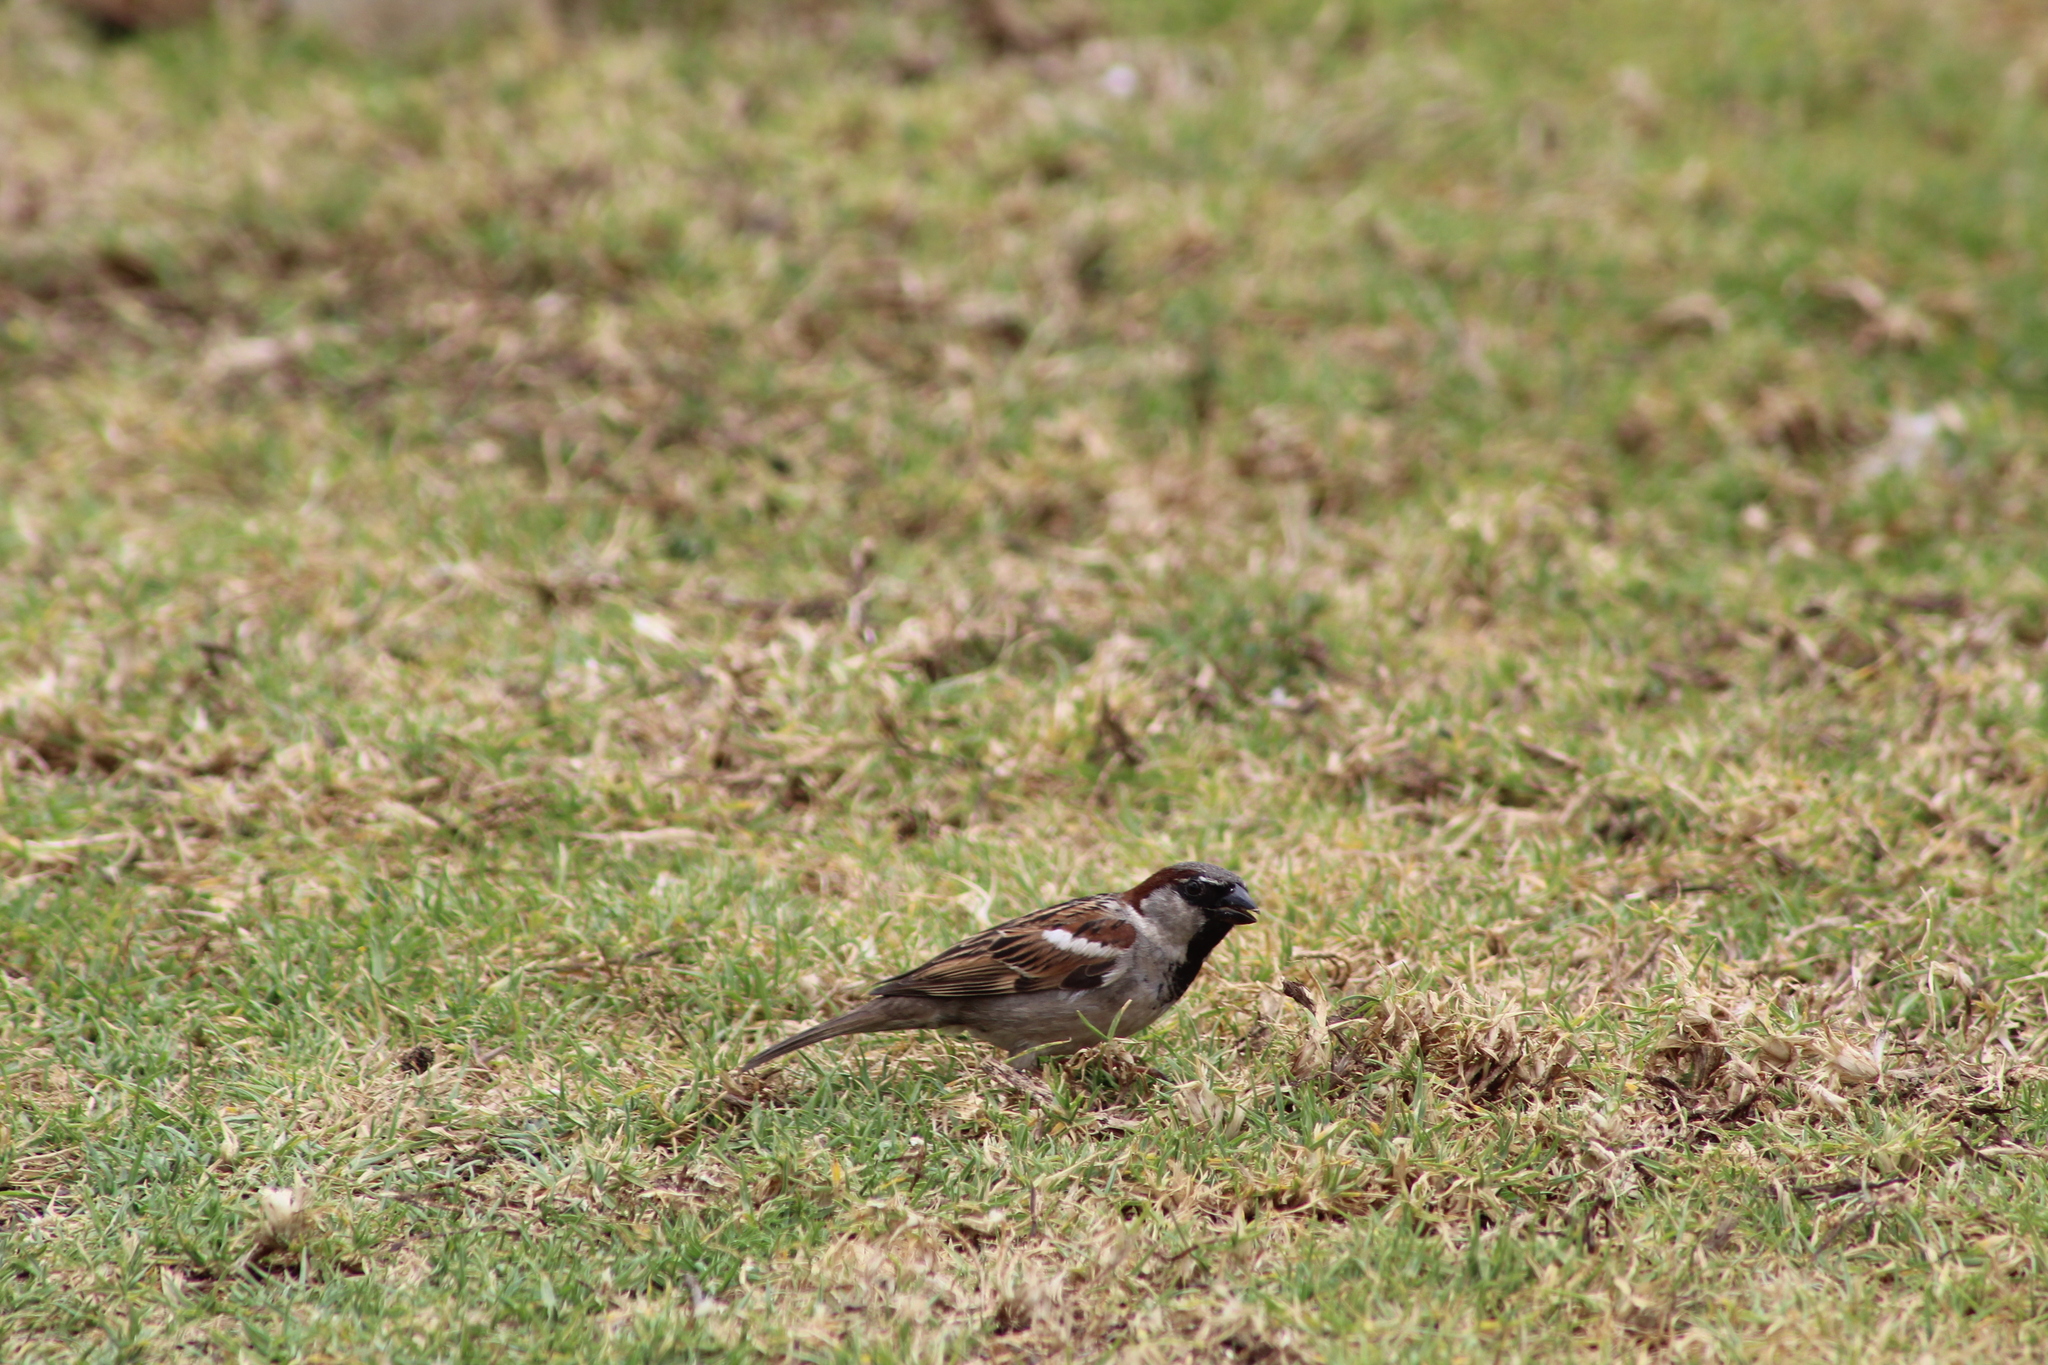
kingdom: Animalia
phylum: Chordata
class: Aves
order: Passeriformes
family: Passeridae
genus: Passer
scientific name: Passer domesticus
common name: House sparrow
